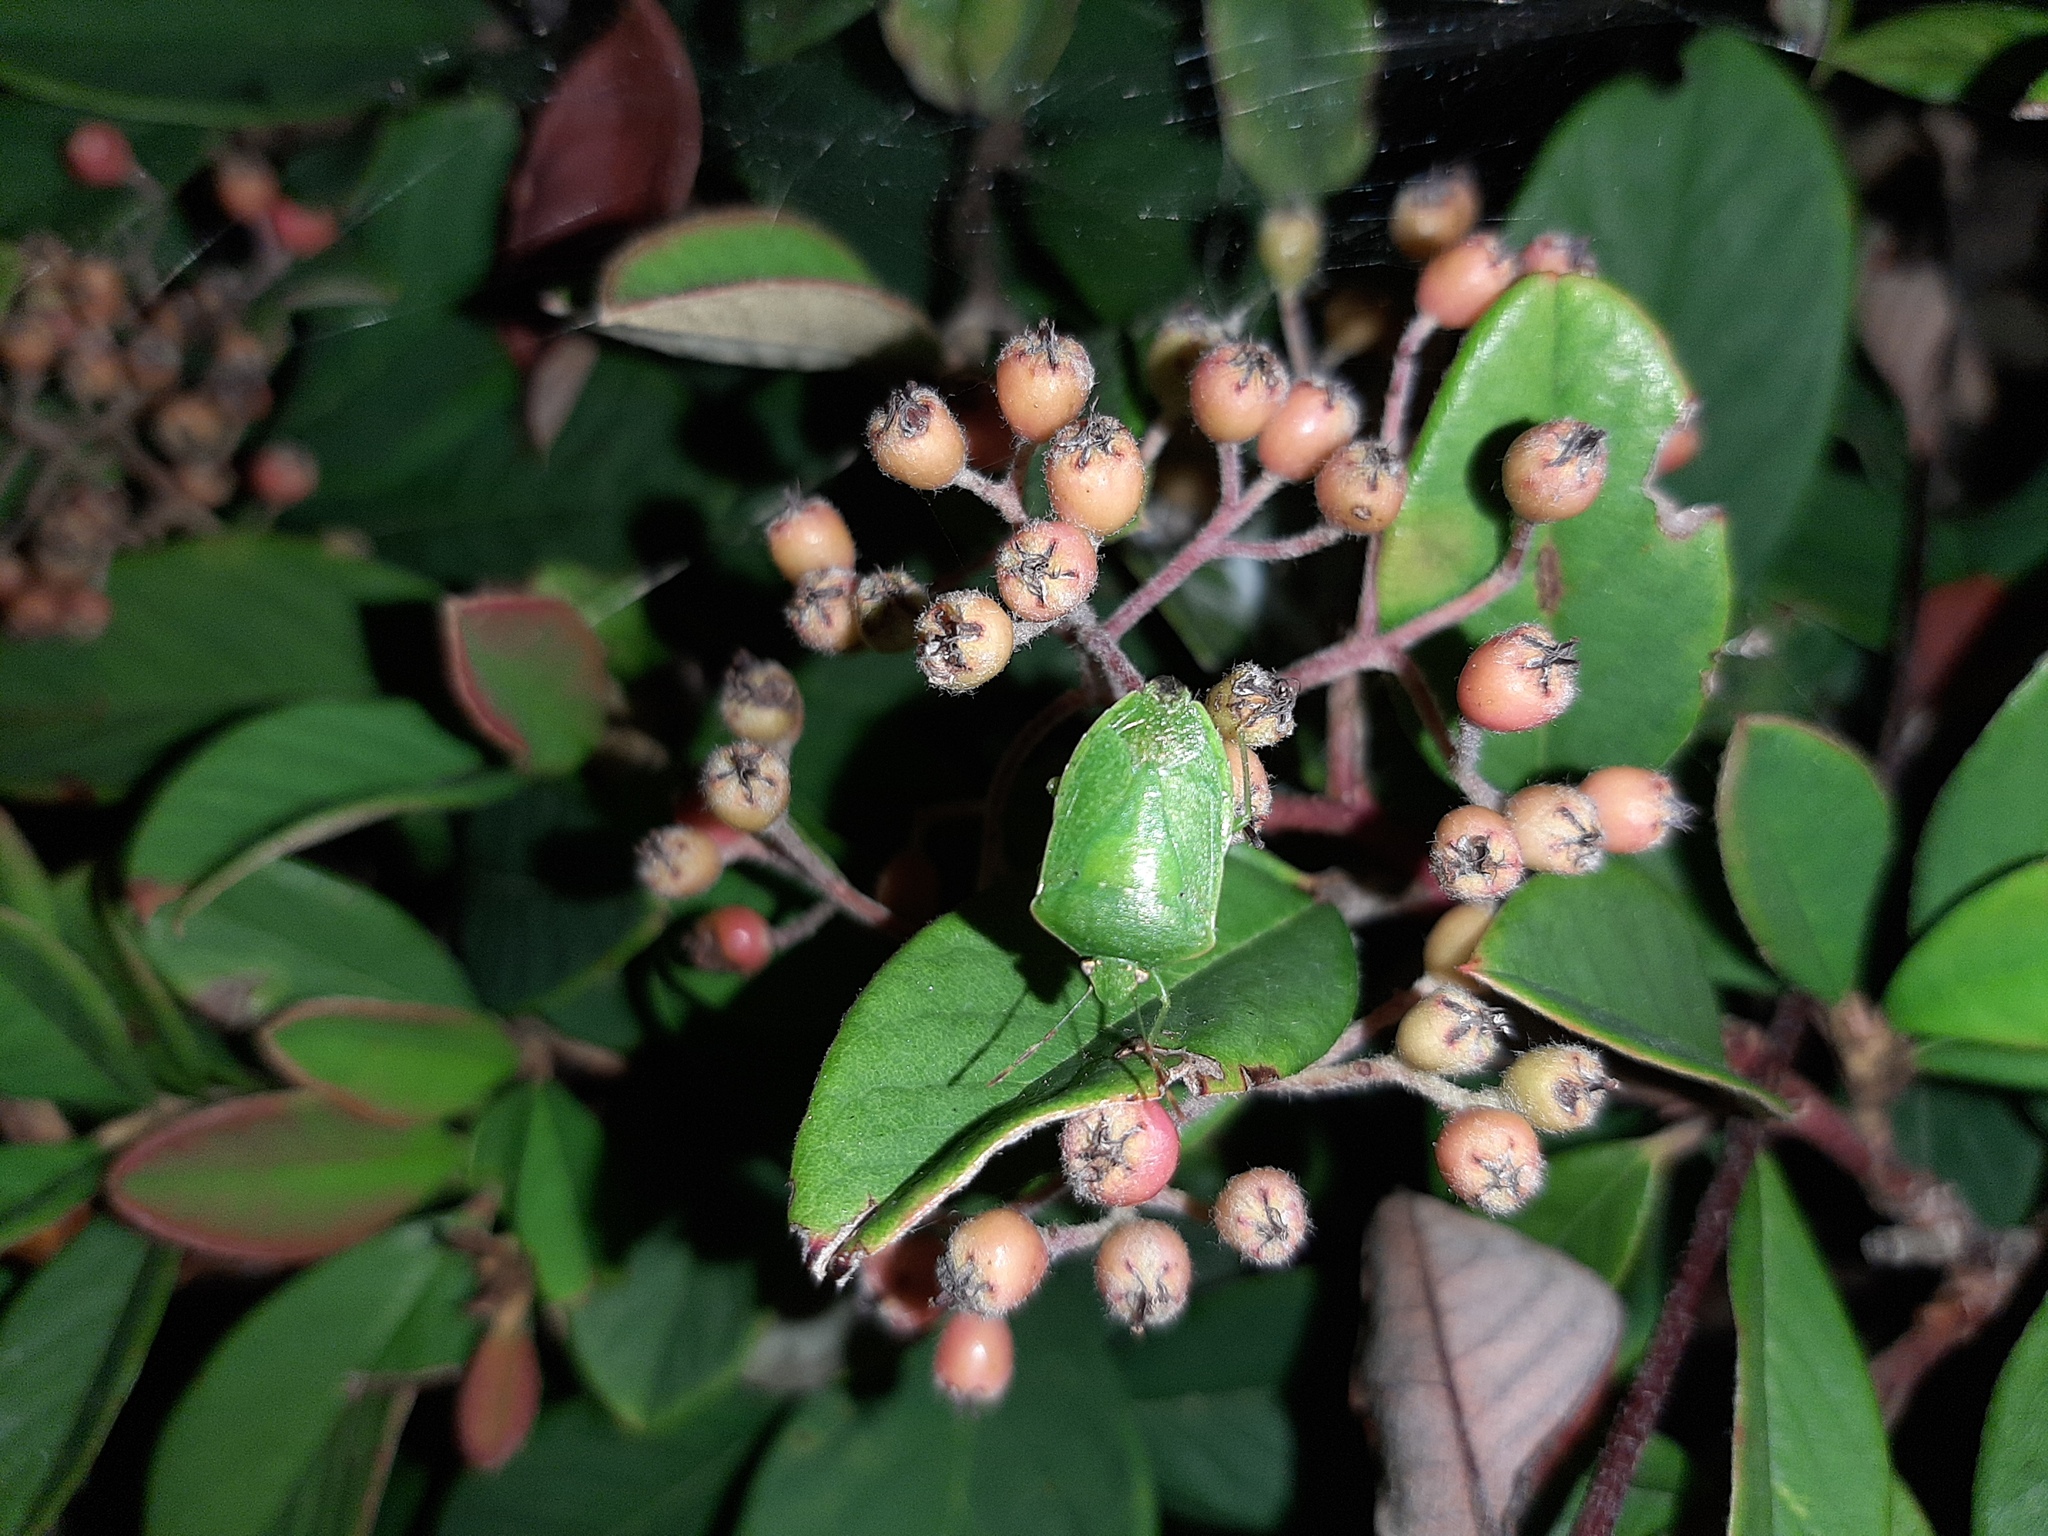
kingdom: Animalia
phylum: Arthropoda
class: Insecta
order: Hemiptera
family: Pentatomidae
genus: Nezara
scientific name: Nezara viridula
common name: Southern green stink bug
